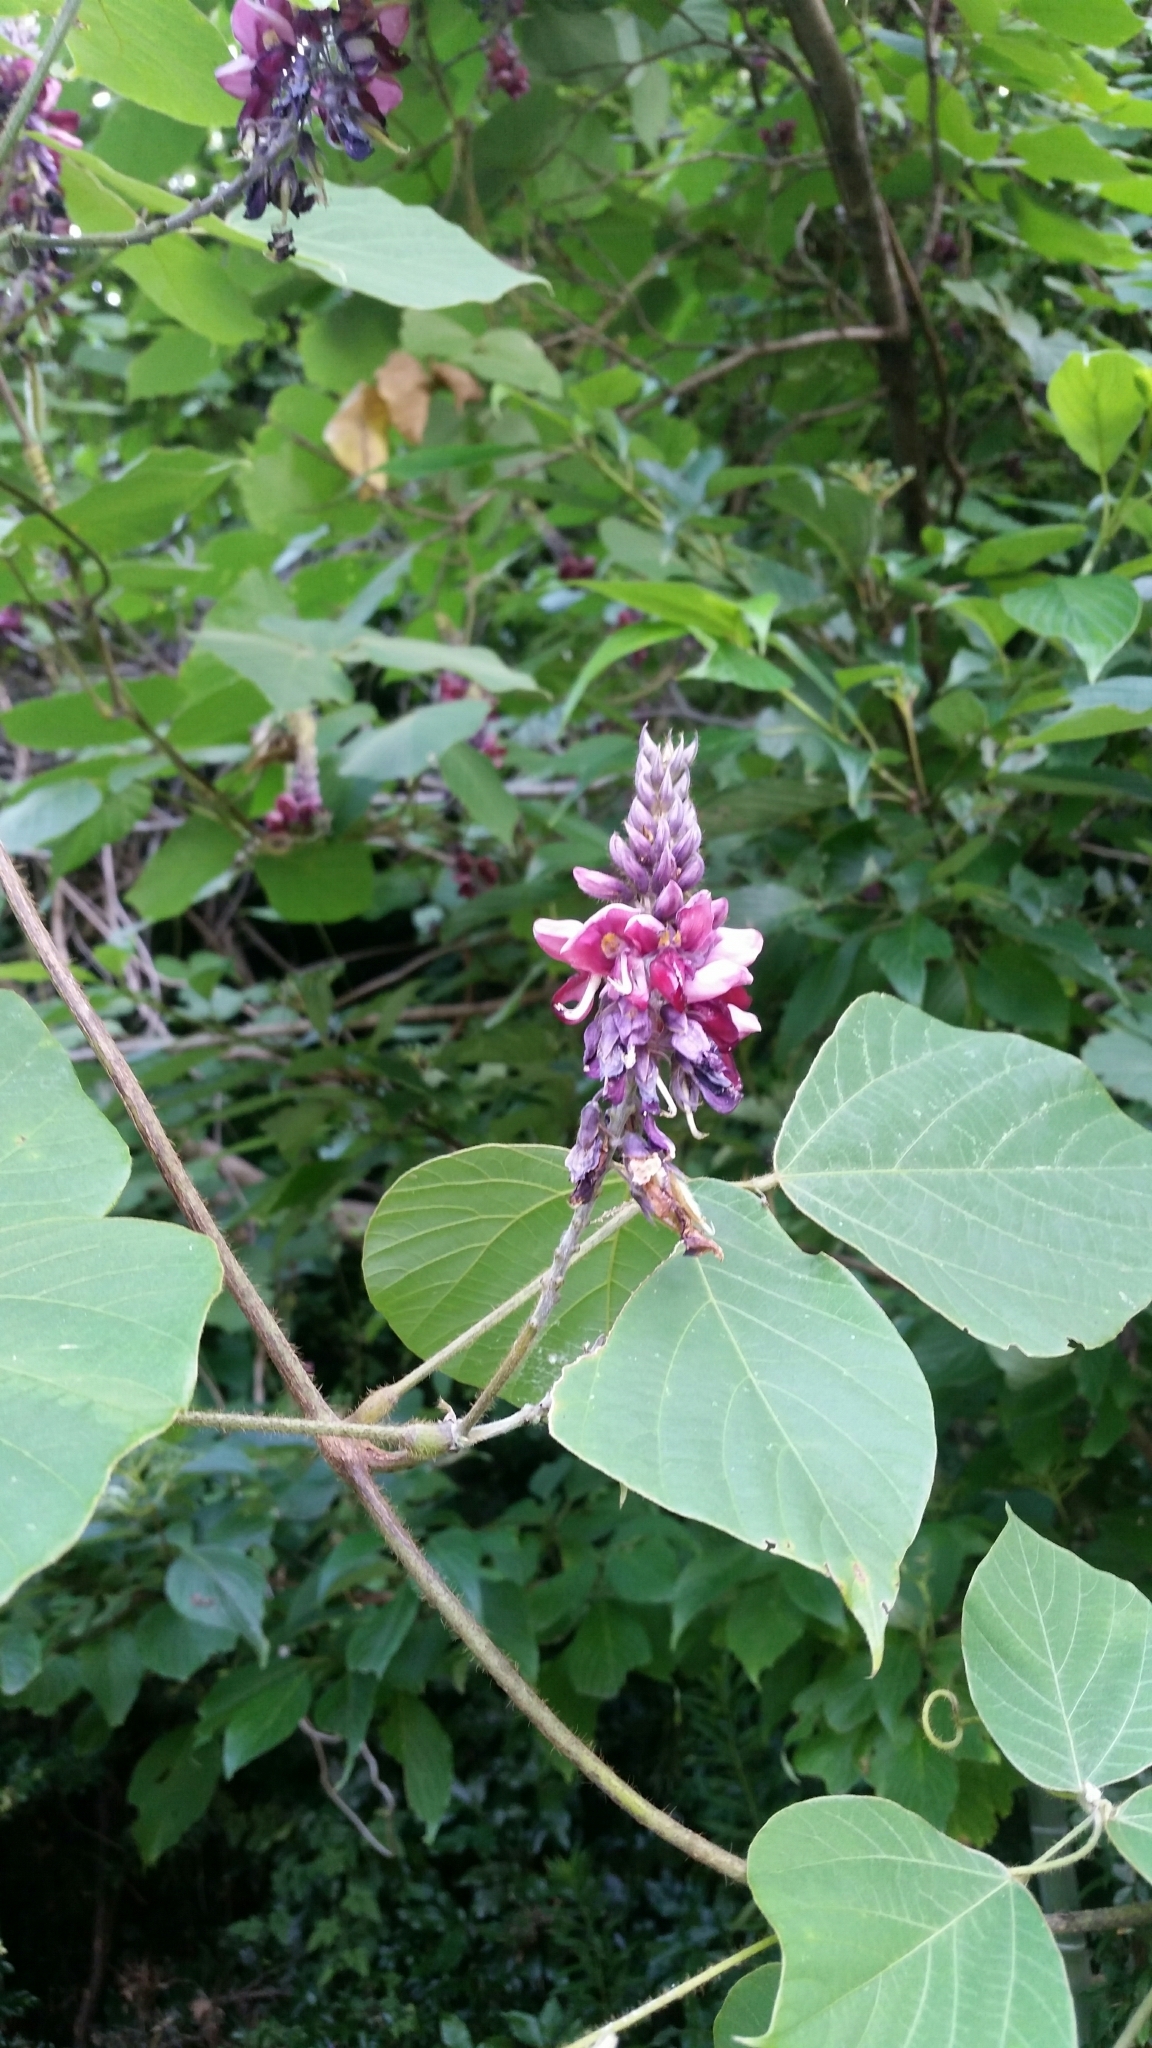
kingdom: Plantae
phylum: Tracheophyta
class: Magnoliopsida
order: Fabales
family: Fabaceae
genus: Pueraria
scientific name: Pueraria montana
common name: Kudzu
